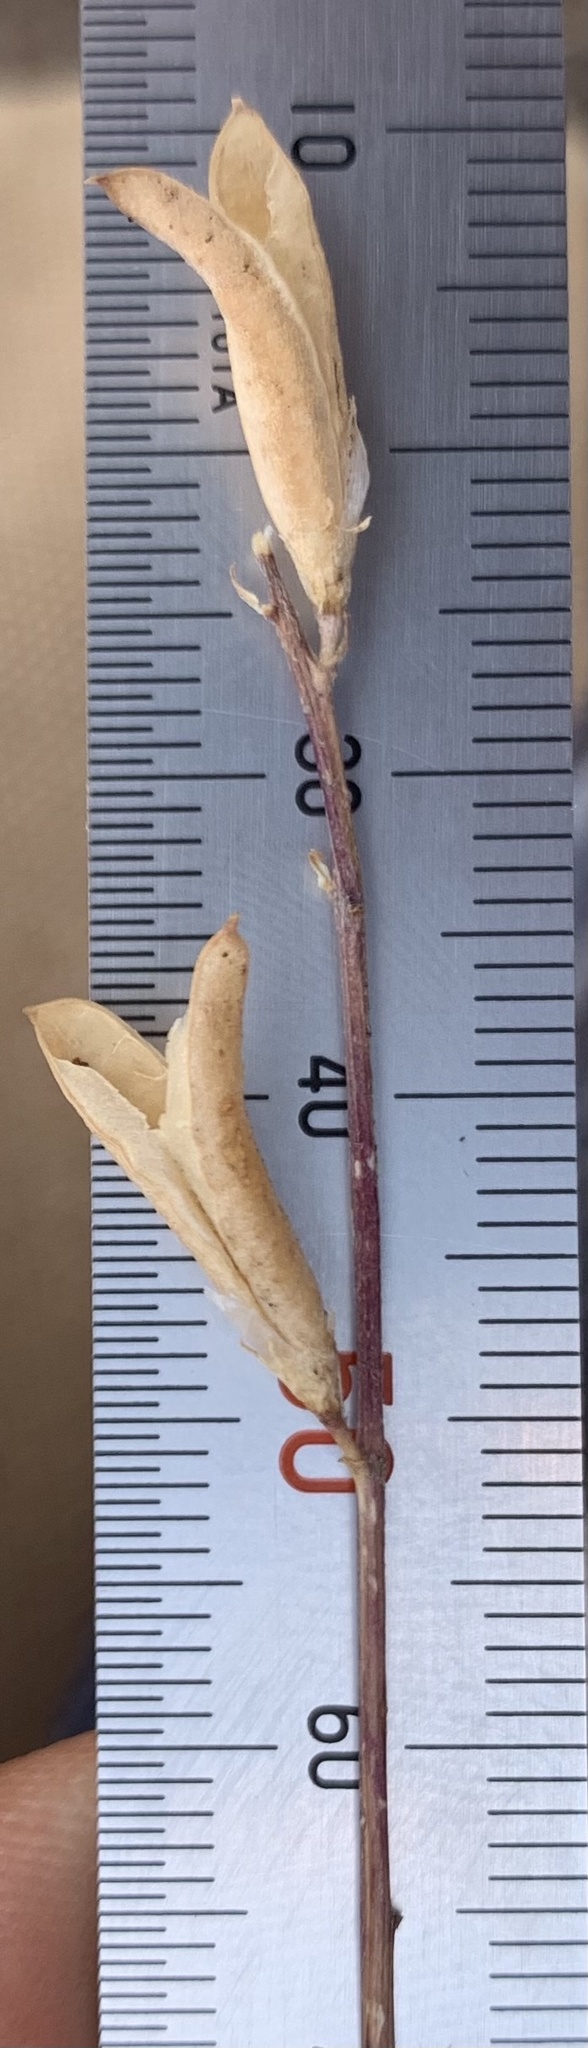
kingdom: Plantae
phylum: Tracheophyta
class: Magnoliopsida
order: Fabales
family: Fabaceae
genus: Astragalus
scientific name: Astragalus obscurus
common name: Arcane milk-vetch
